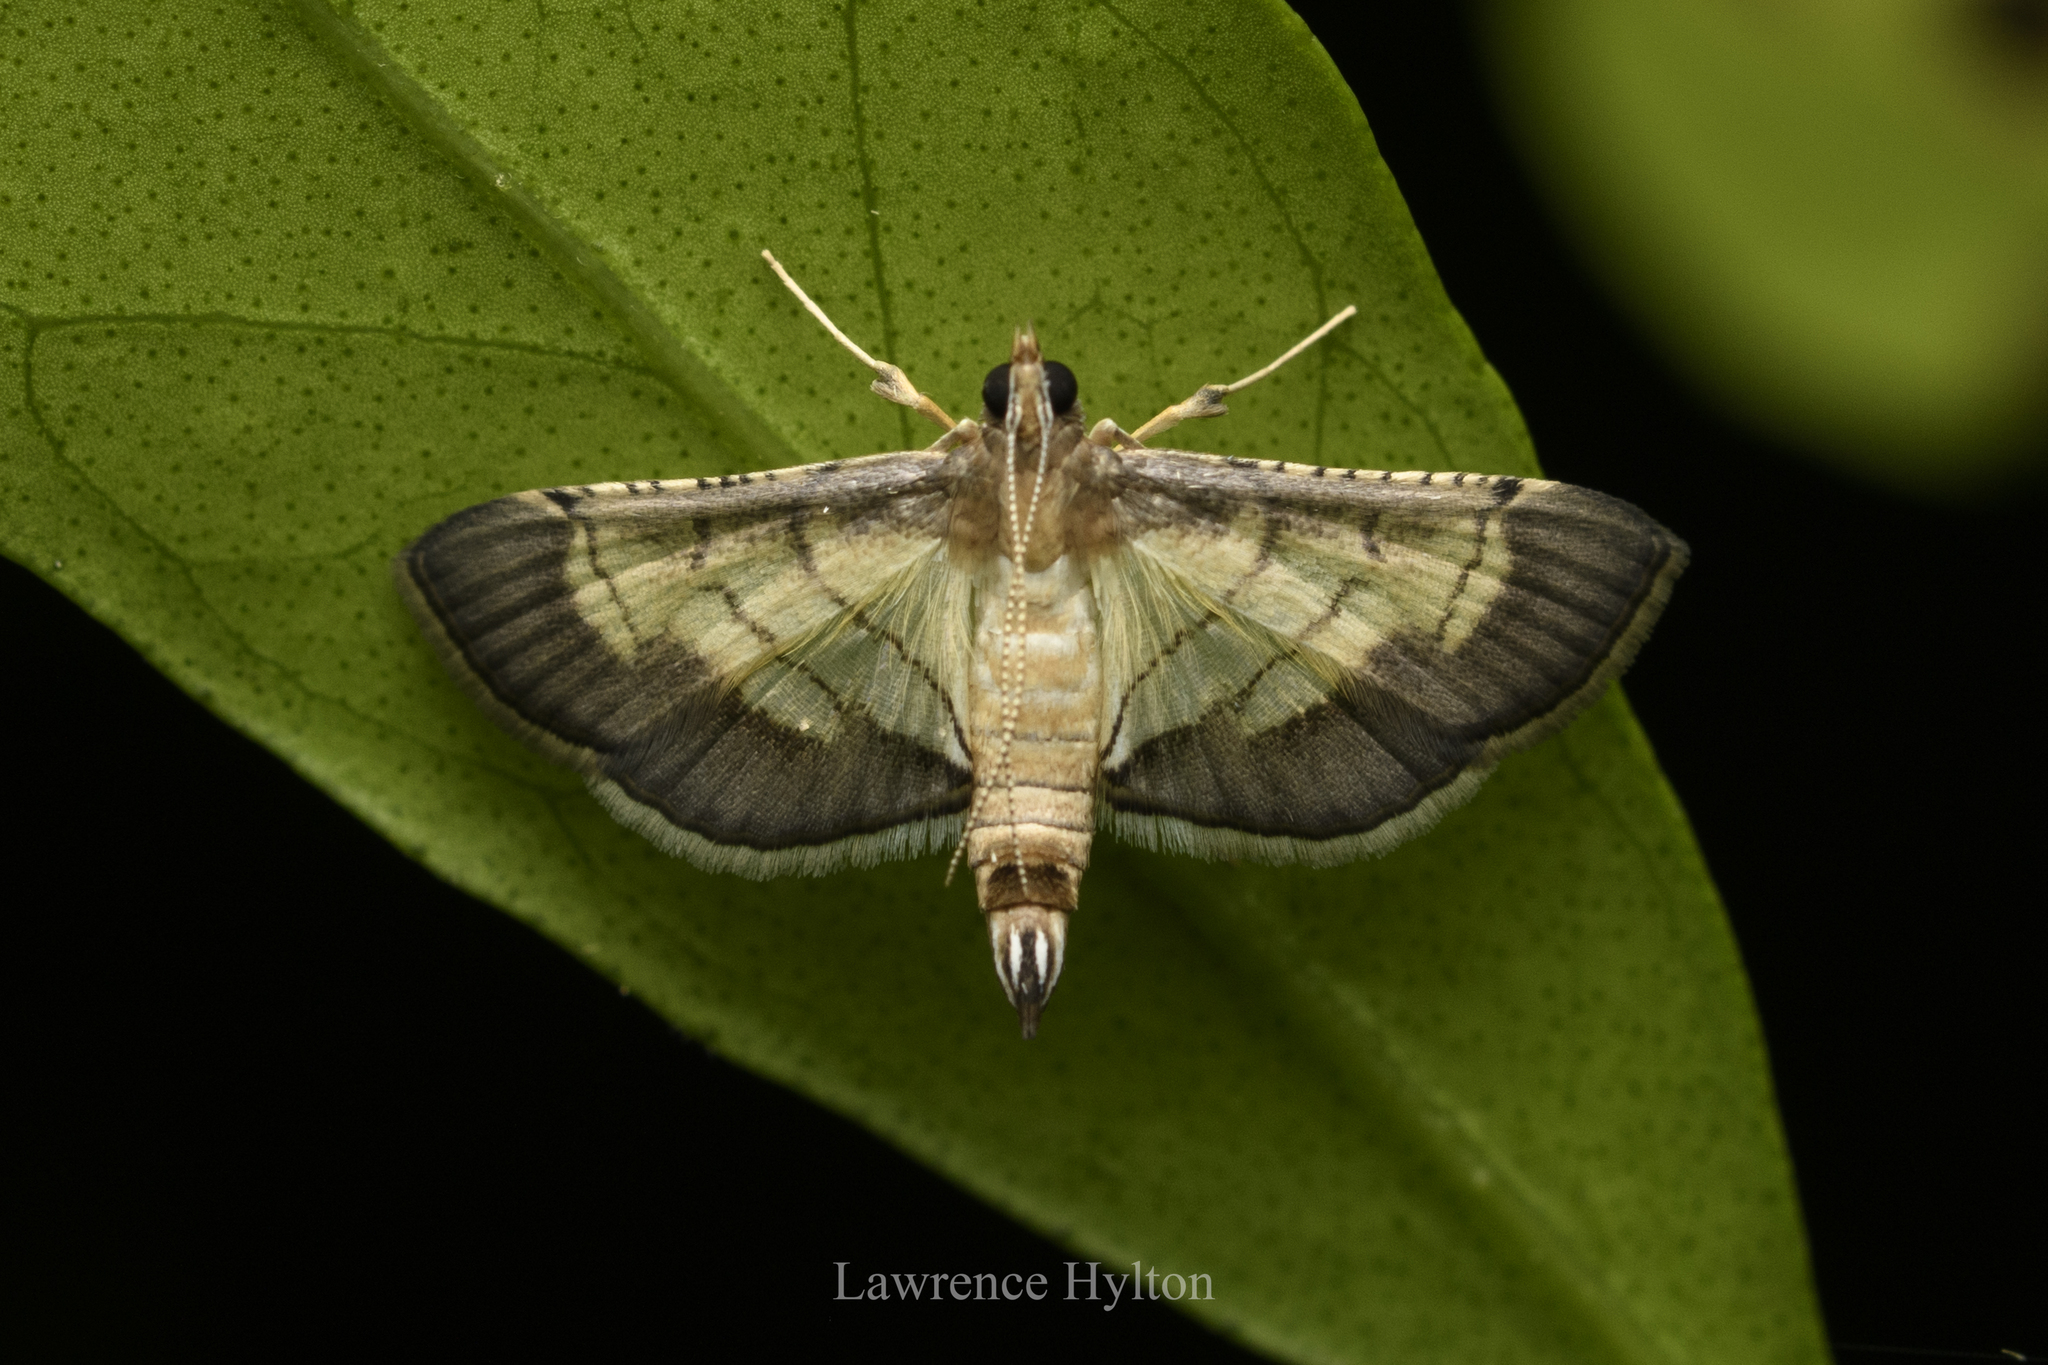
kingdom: Animalia
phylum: Arthropoda
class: Insecta
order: Lepidoptera
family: Crambidae
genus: Cnaphalocrocis
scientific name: Cnaphalocrocis trebiusalis
